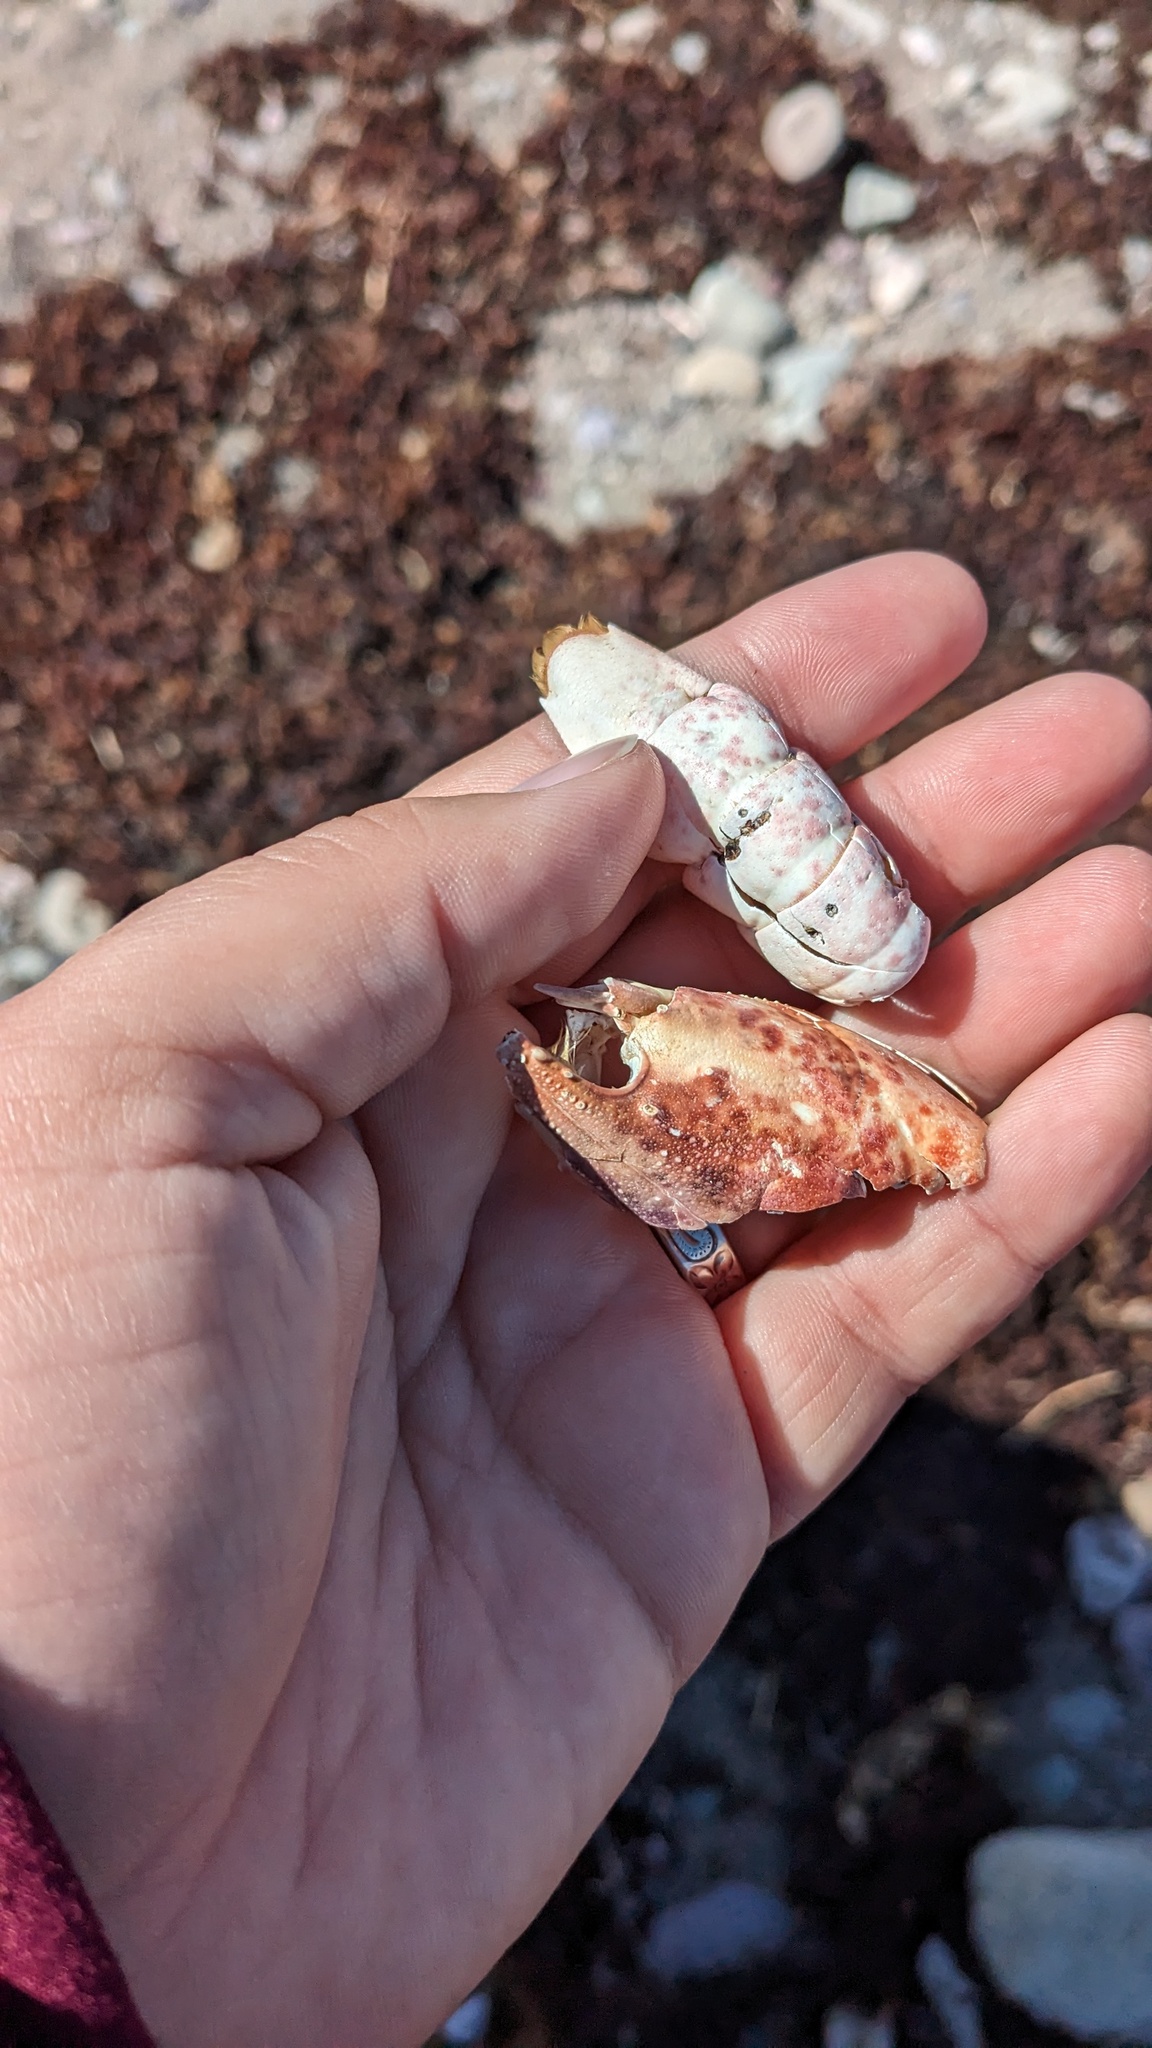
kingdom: Animalia
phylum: Arthropoda
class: Malacostraca
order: Decapoda
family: Nephropidae
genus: Homarus
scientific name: Homarus americanus
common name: American lobster
